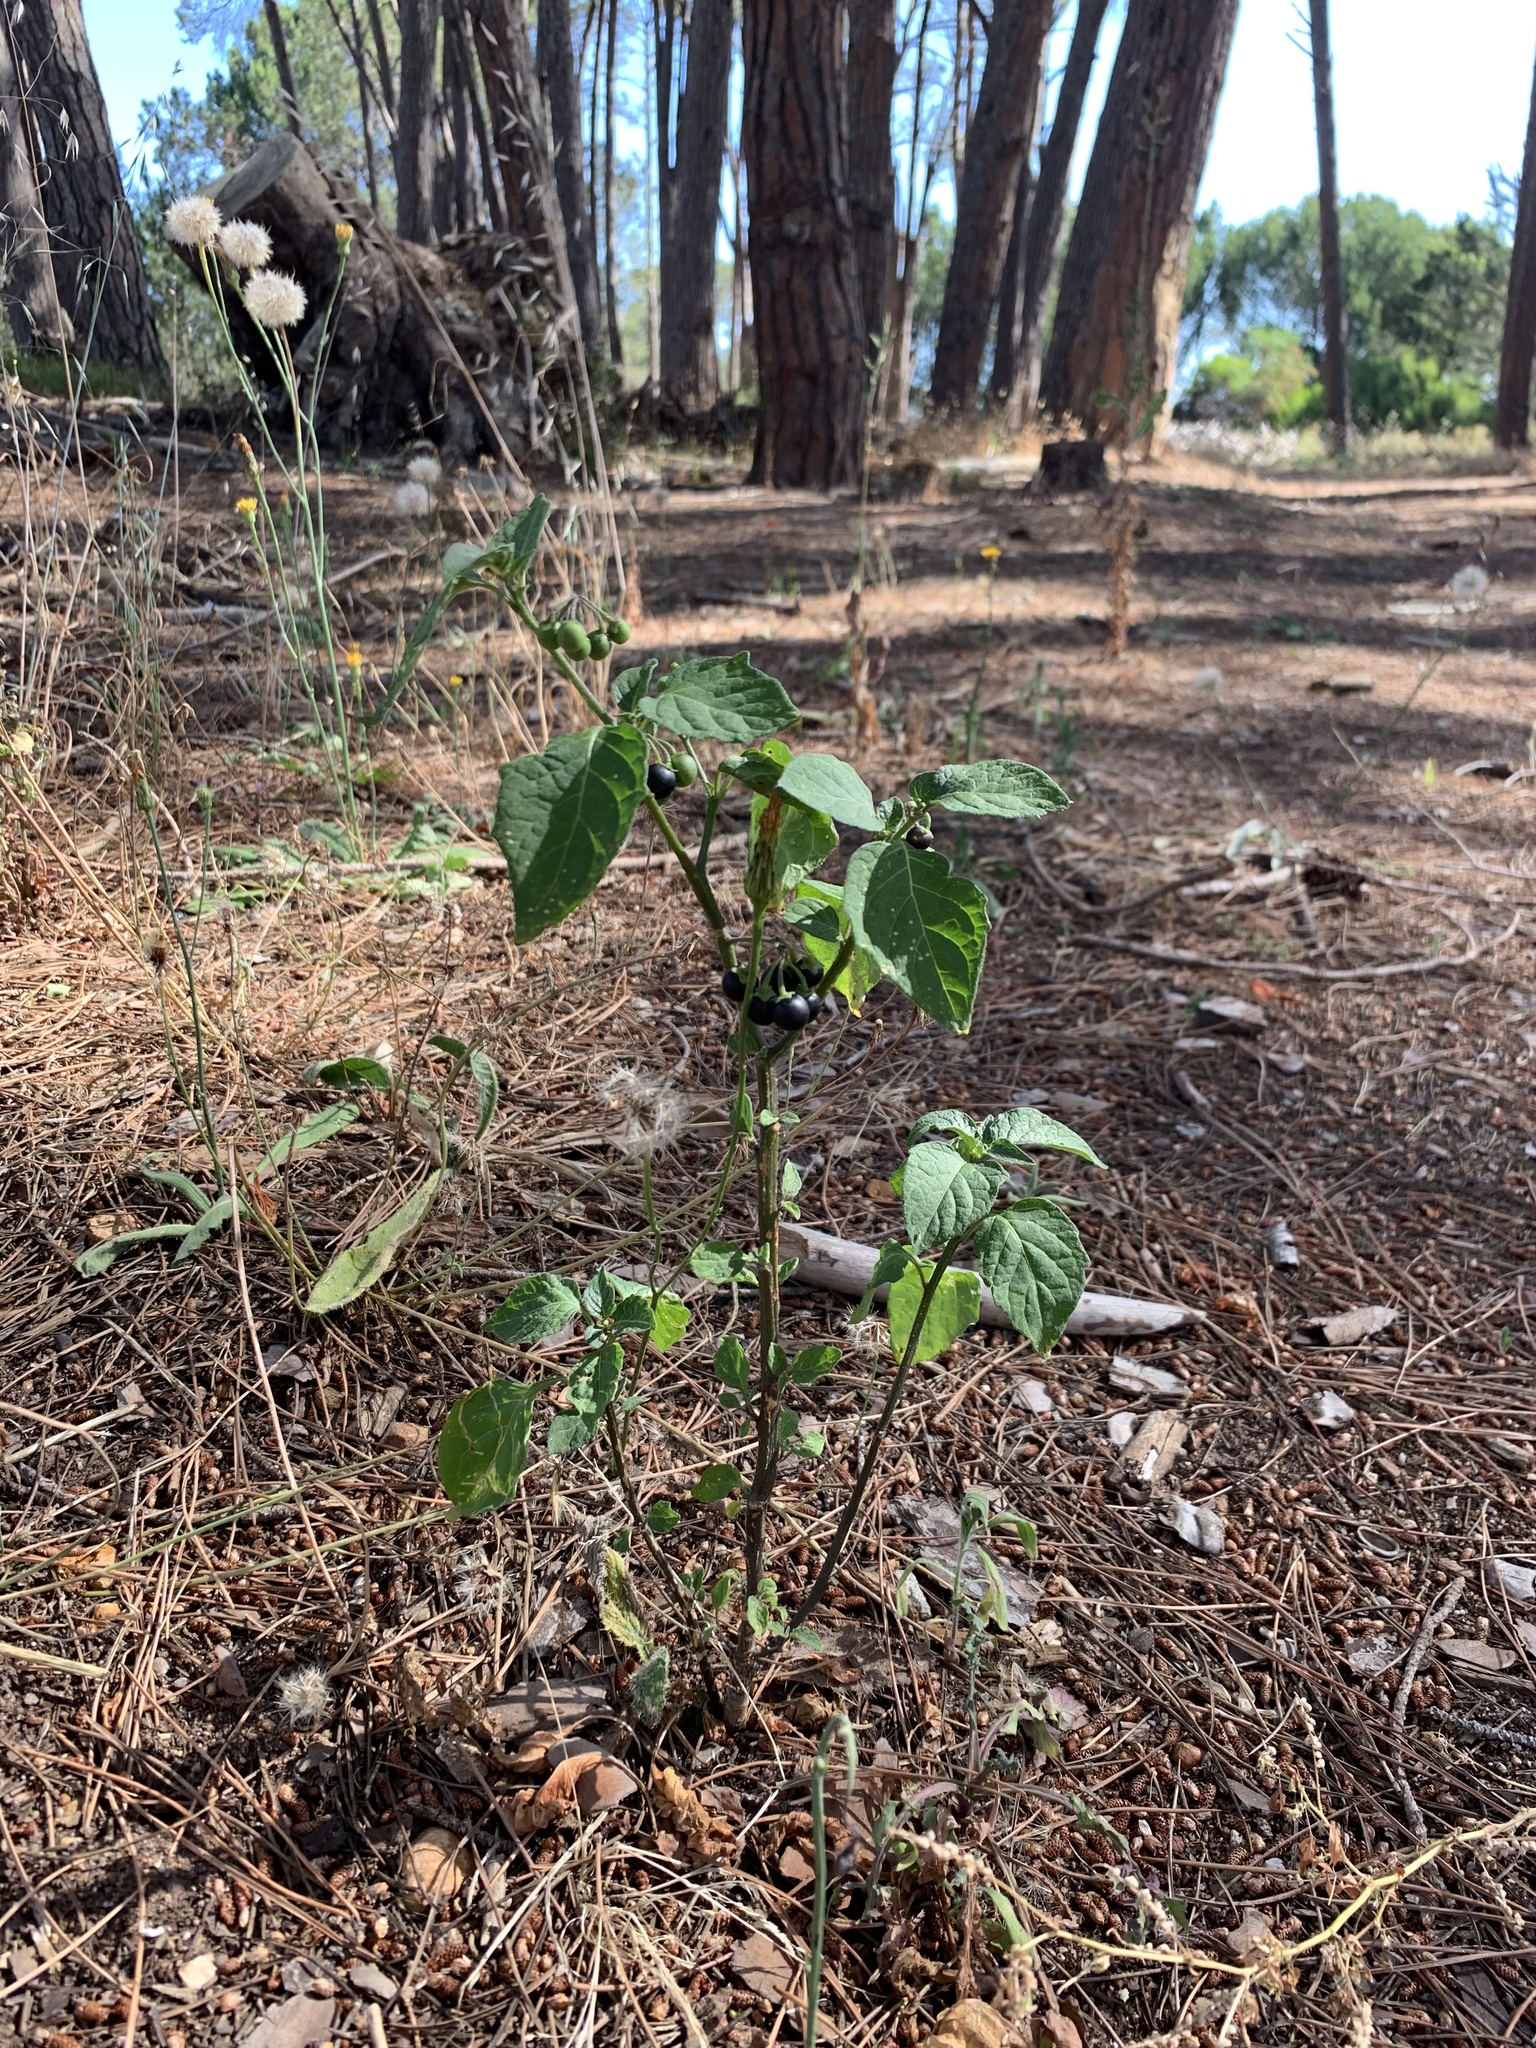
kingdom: Plantae
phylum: Tracheophyta
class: Magnoliopsida
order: Solanales
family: Solanaceae
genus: Solanum
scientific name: Solanum nigrum
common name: Black nightshade
